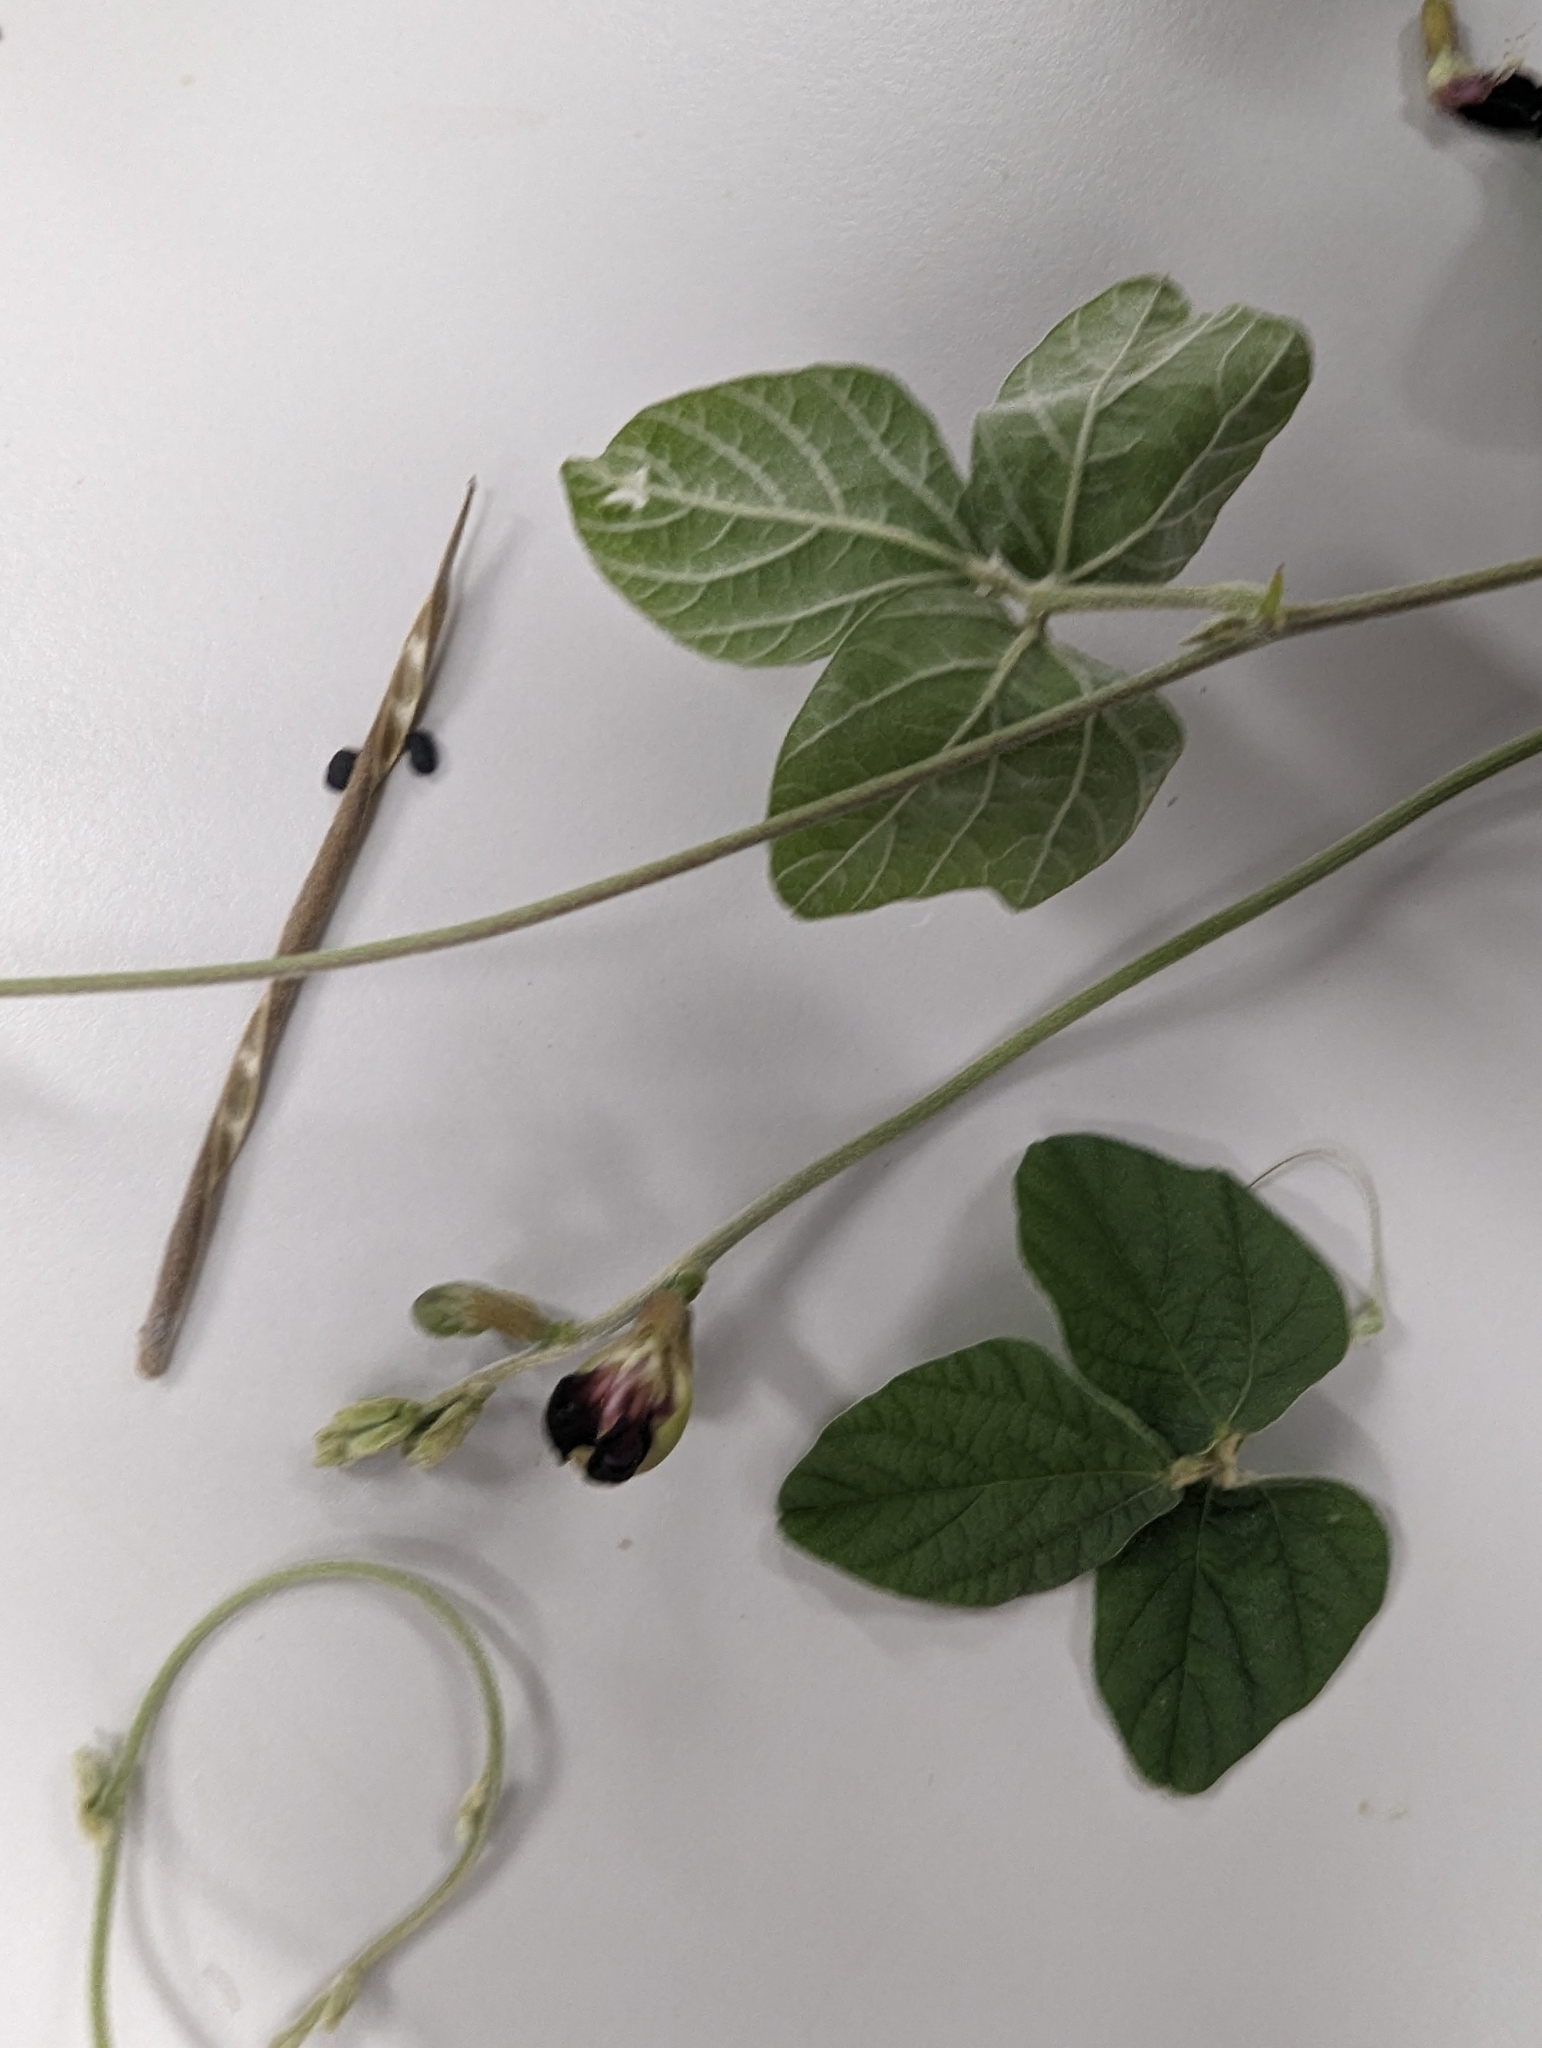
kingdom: Plantae
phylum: Tracheophyta
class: Magnoliopsida
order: Fabales
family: Fabaceae
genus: Macroptilium
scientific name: Macroptilium atropurpureum
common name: Purple bushbean
